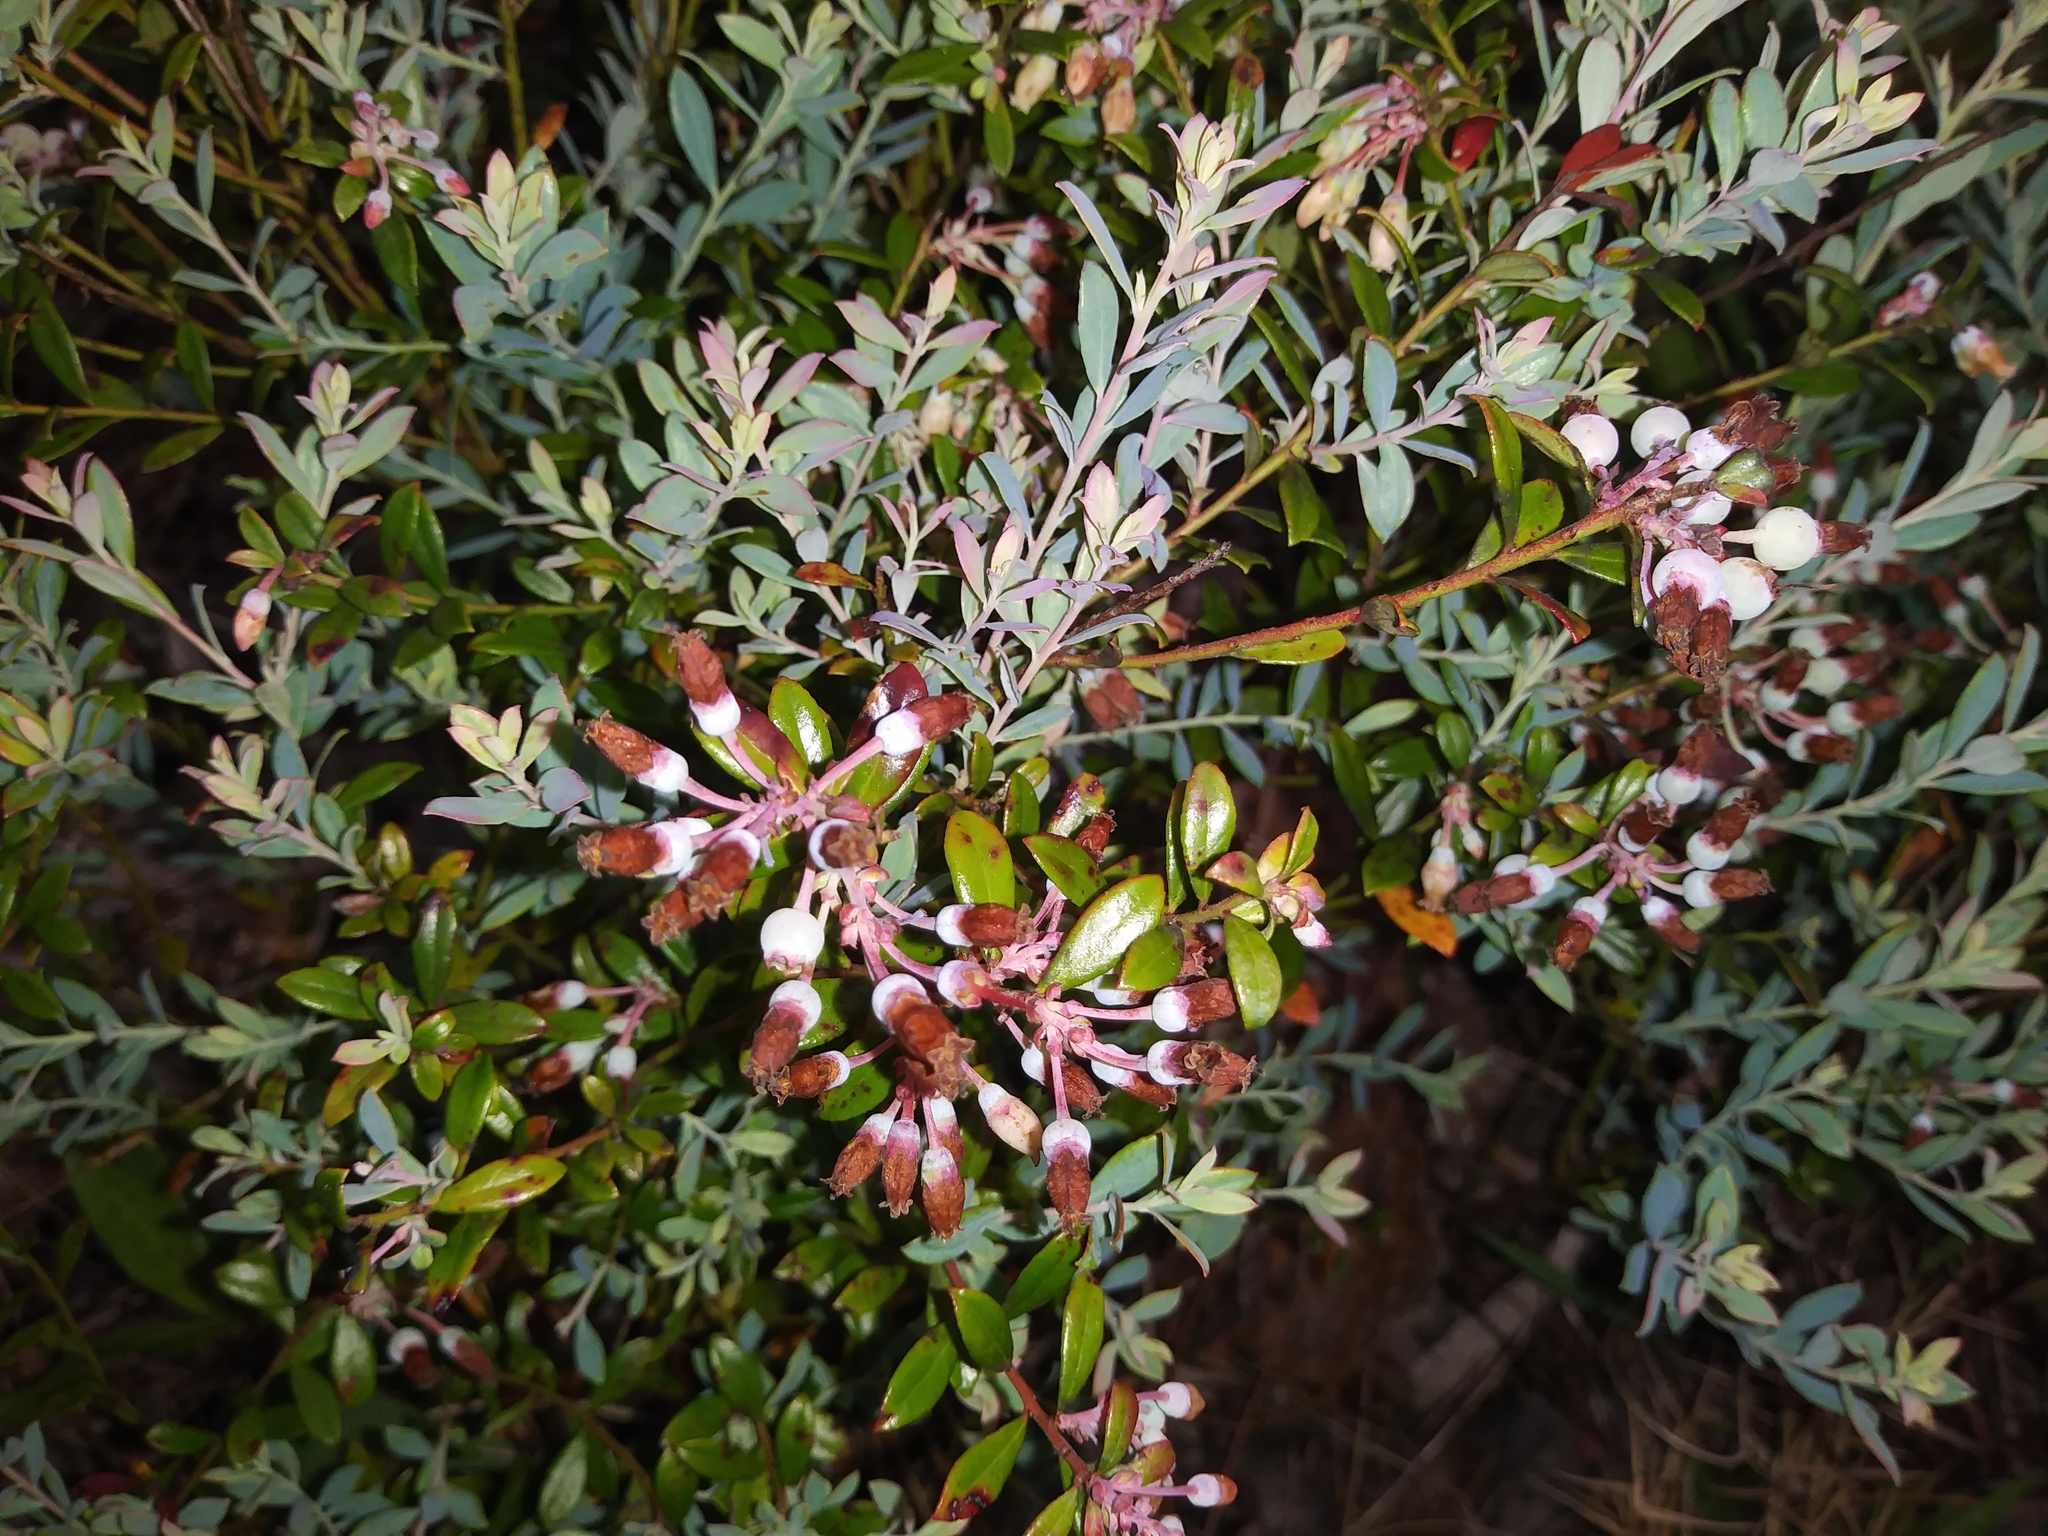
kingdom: Plantae
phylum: Tracheophyta
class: Magnoliopsida
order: Ericales
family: Ericaceae
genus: Vaccinium
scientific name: Vaccinium darrowii
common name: Darrow's blueberry
